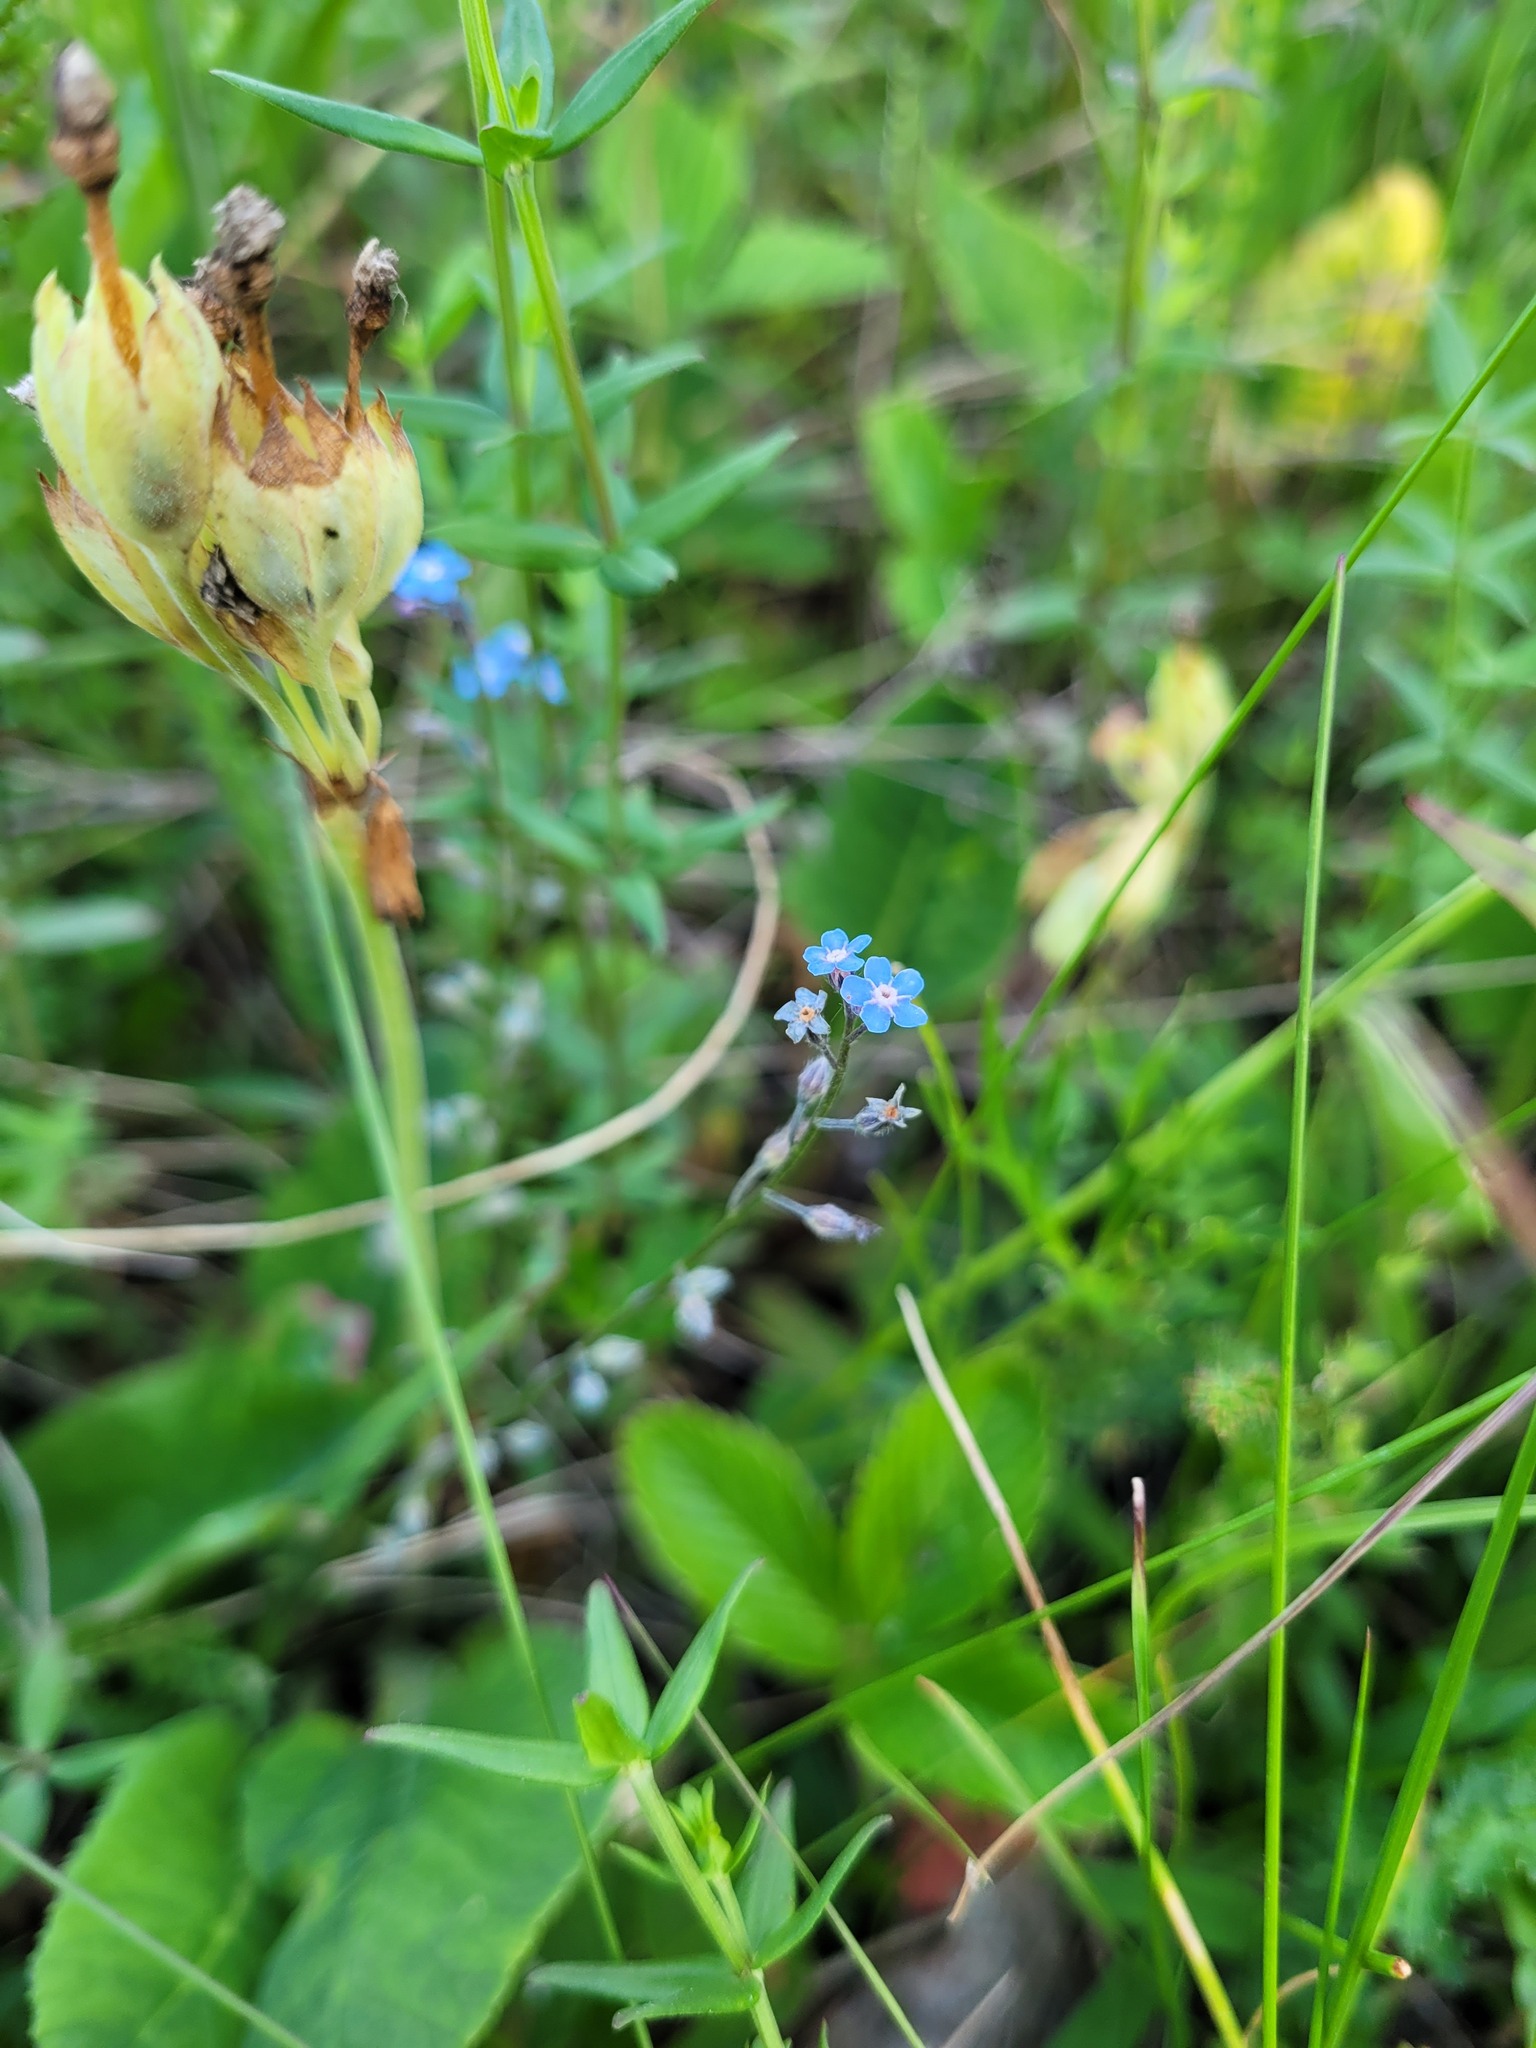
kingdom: Plantae
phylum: Tracheophyta
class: Magnoliopsida
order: Boraginales
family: Boraginaceae
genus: Myosotis
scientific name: Myosotis alpestris
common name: Alpine forget-me-not
